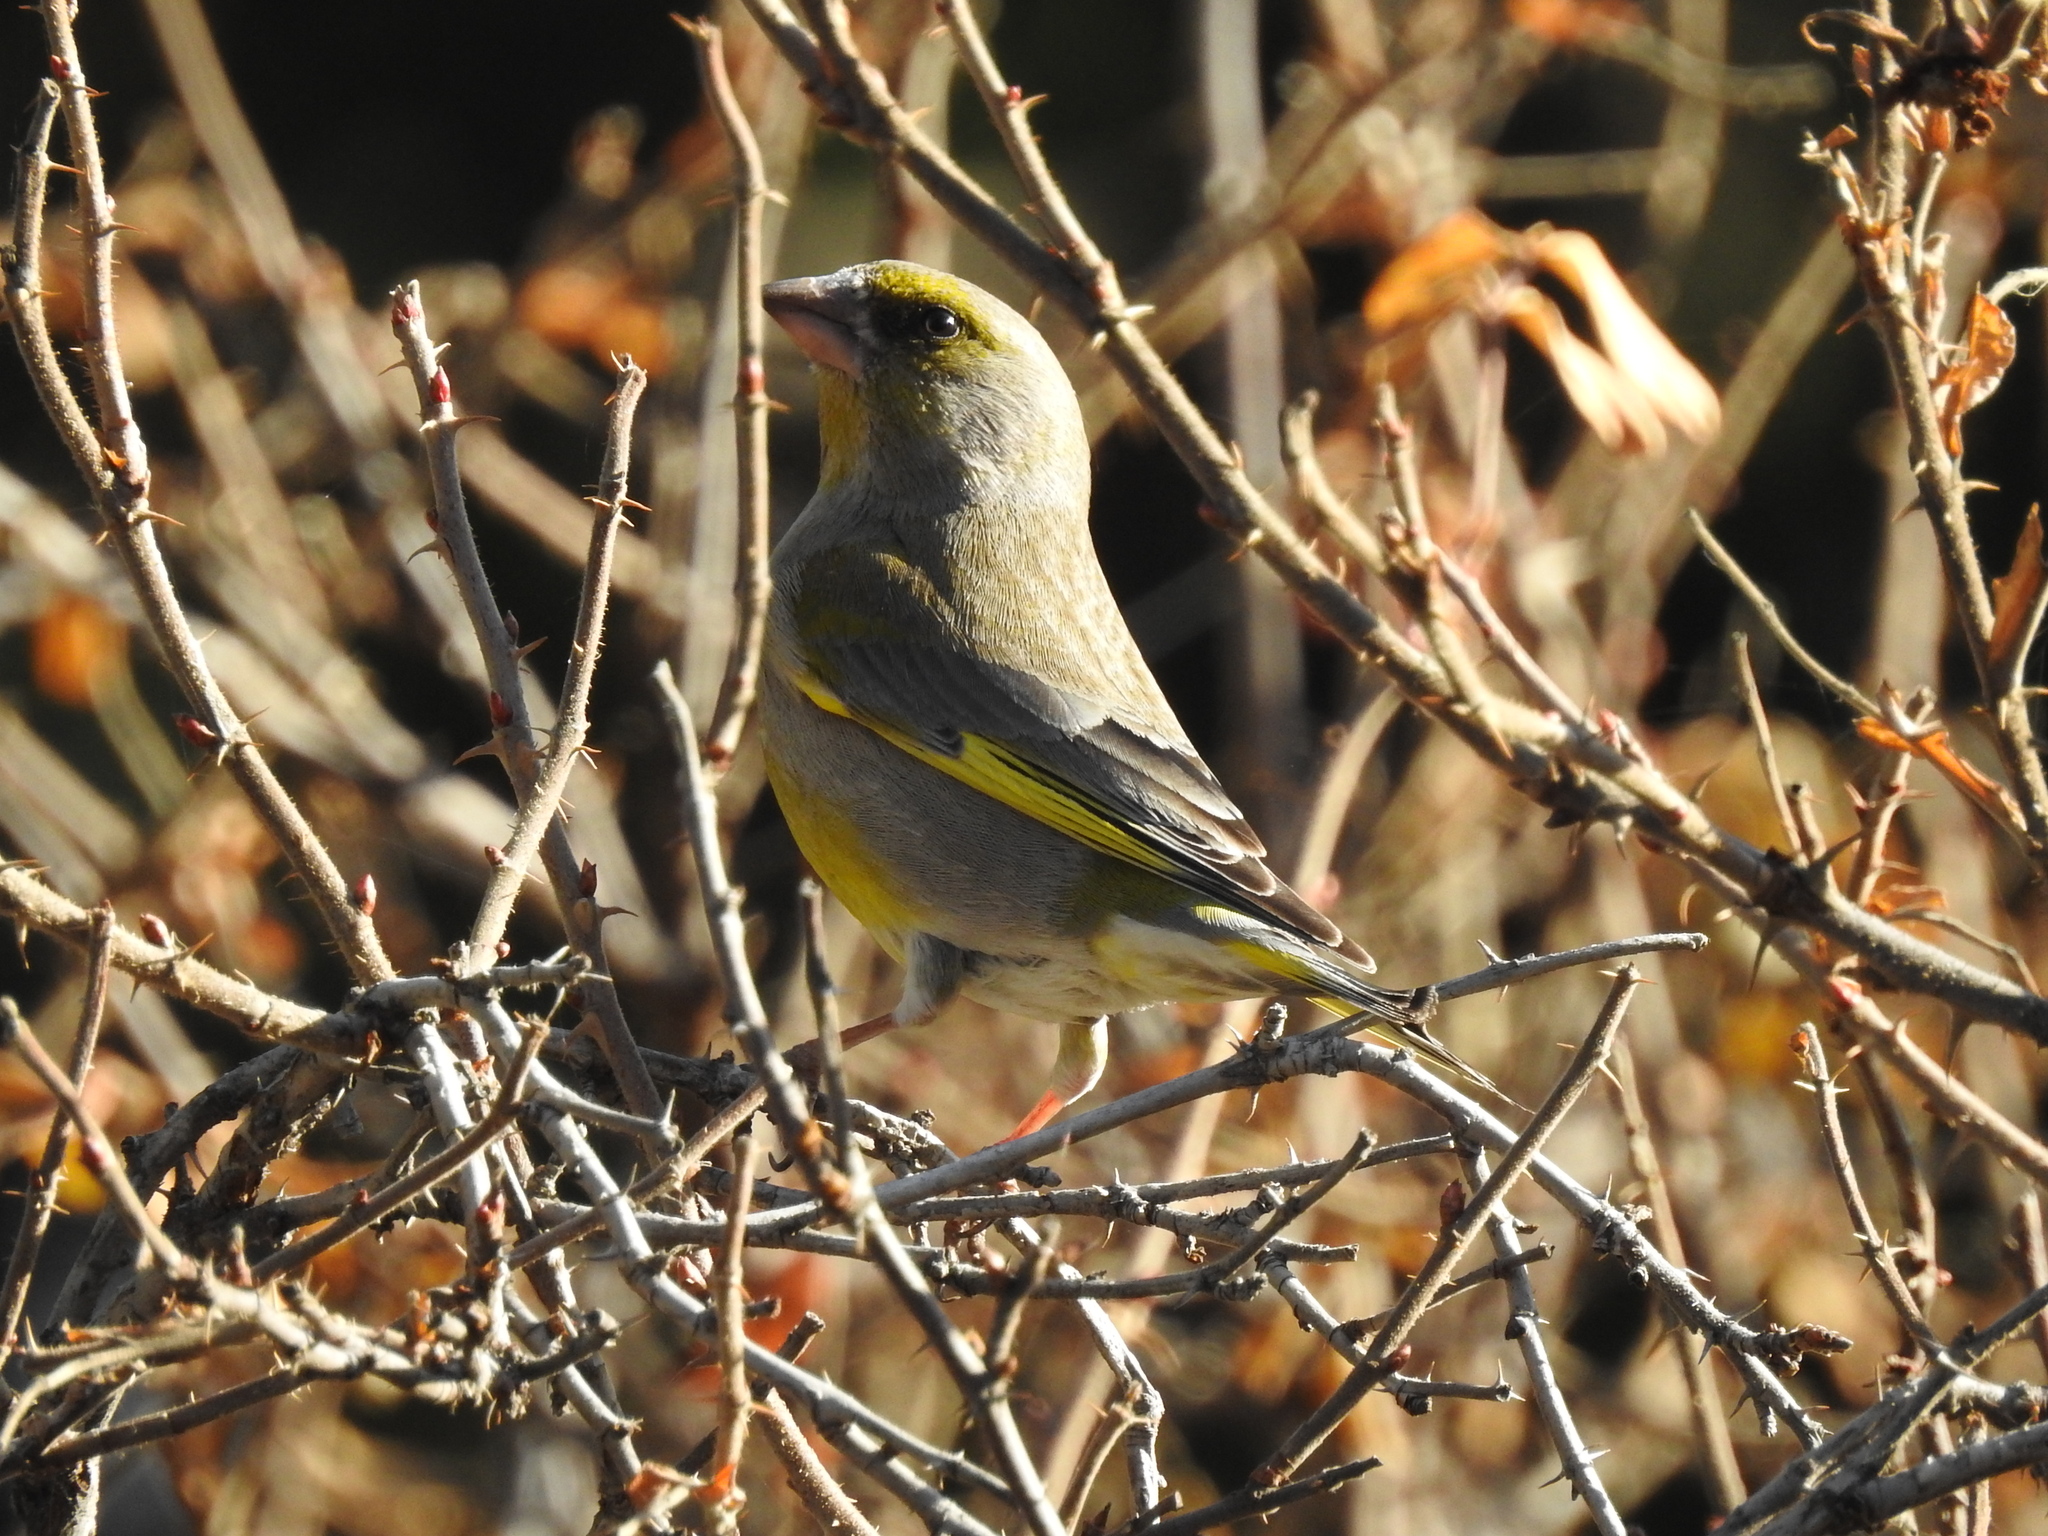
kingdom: Plantae
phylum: Tracheophyta
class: Liliopsida
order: Poales
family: Poaceae
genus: Chloris
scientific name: Chloris chloris
